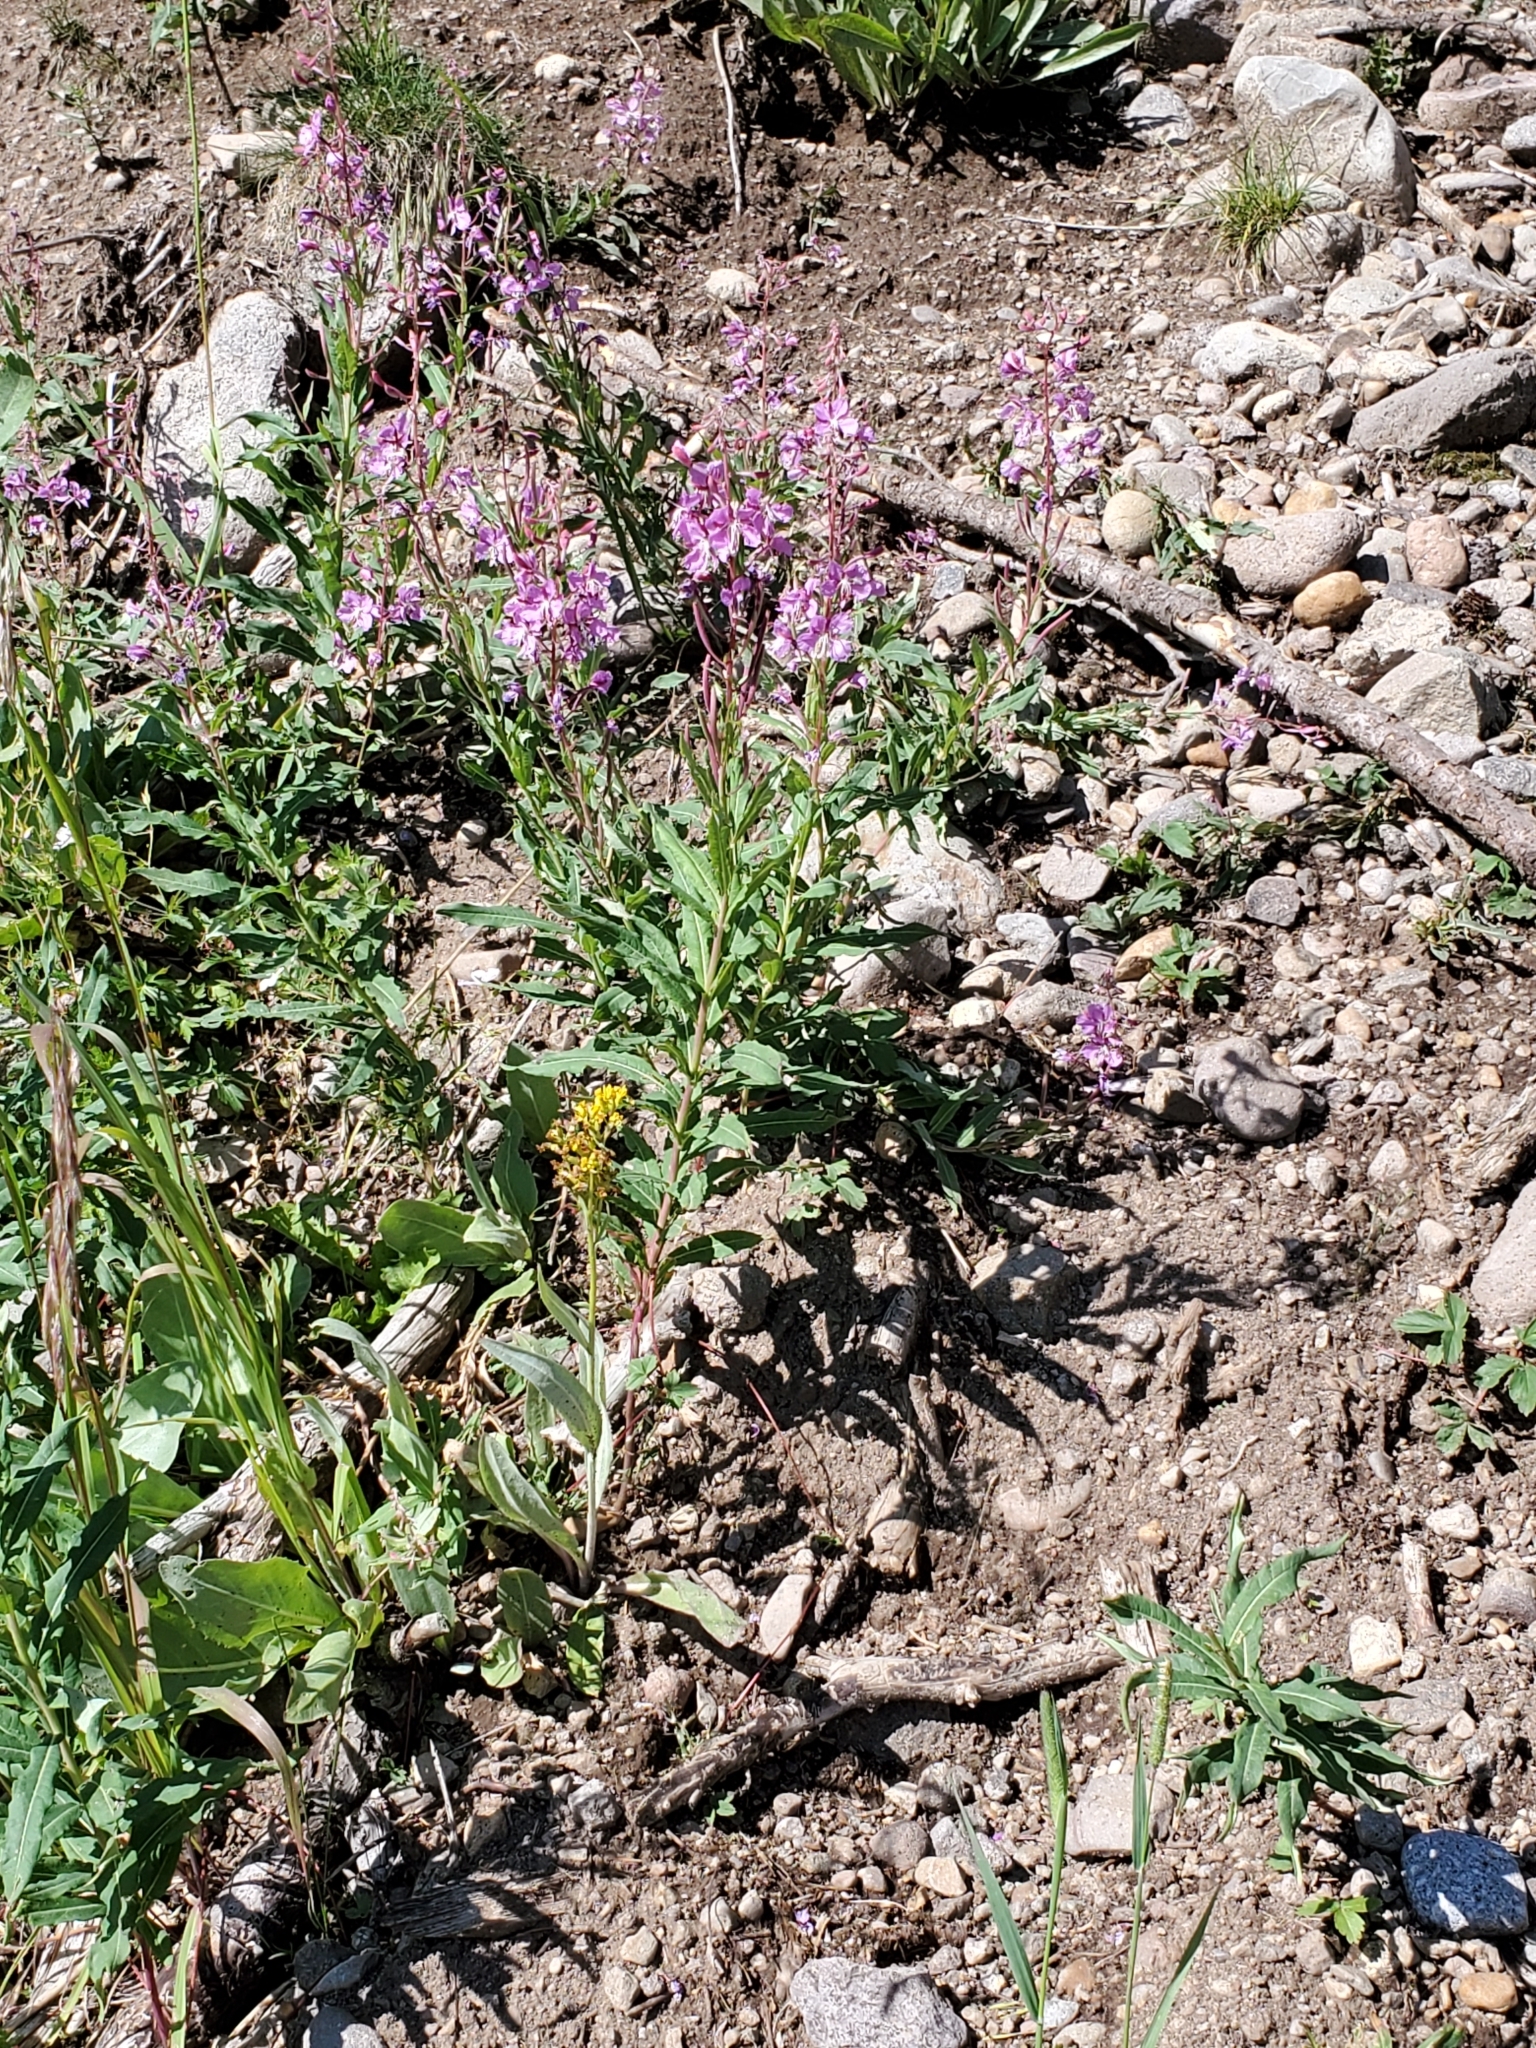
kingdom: Plantae
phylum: Tracheophyta
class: Magnoliopsida
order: Myrtales
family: Onagraceae
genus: Chamaenerion
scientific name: Chamaenerion angustifolium
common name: Fireweed
